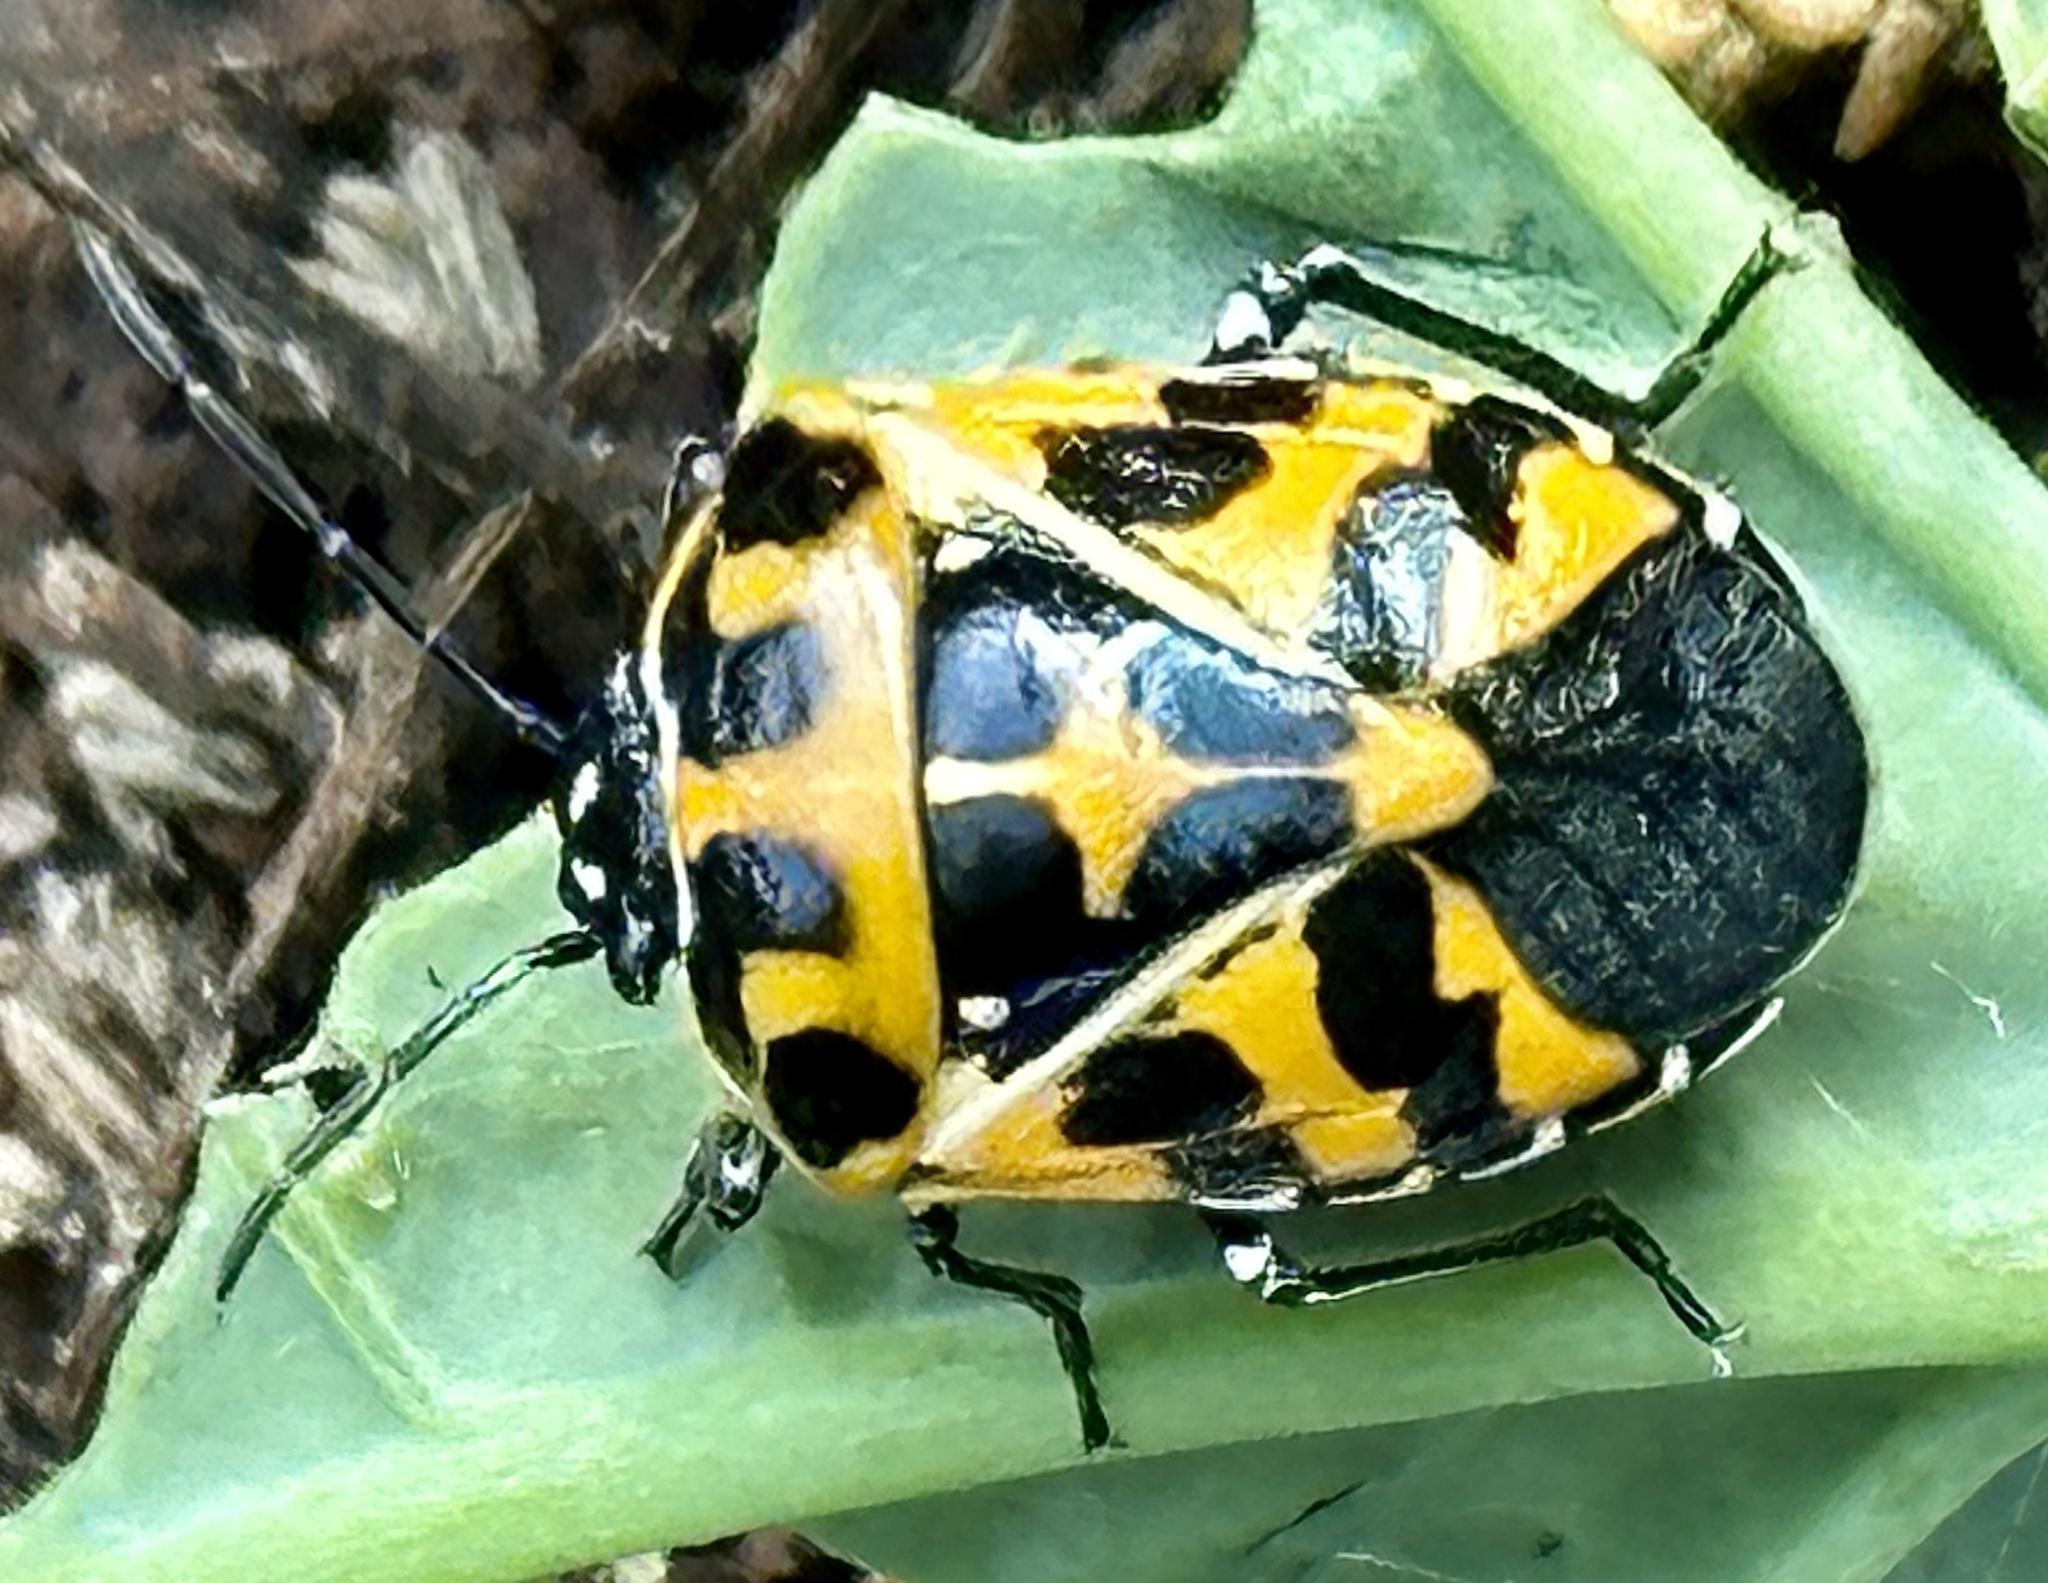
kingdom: Animalia
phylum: Arthropoda
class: Insecta
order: Hemiptera
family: Pentatomidae
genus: Murgantia
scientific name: Murgantia histrionica
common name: Harlequin bug
